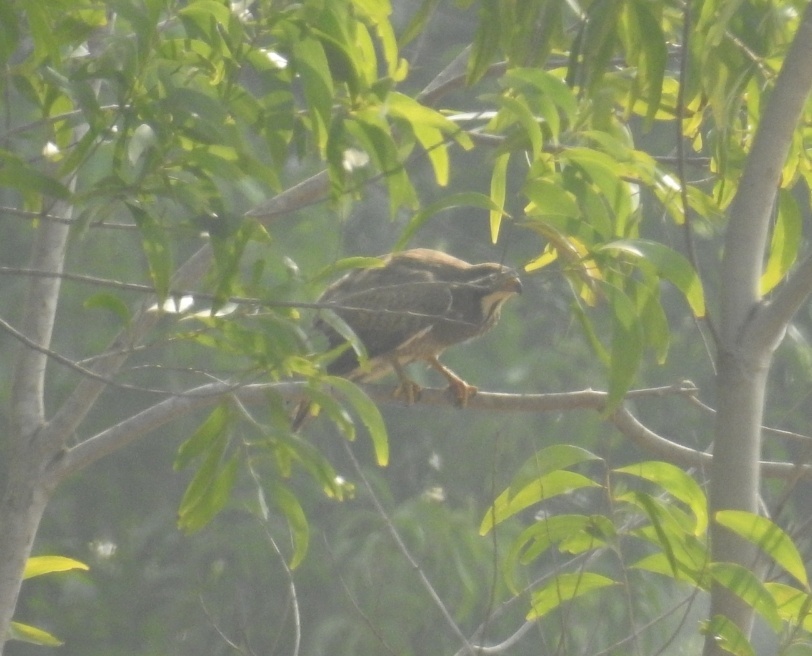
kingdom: Animalia
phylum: Chordata
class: Aves
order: Accipitriformes
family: Accipitridae
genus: Butastur
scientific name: Butastur teesa
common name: White-eyed buzzard
